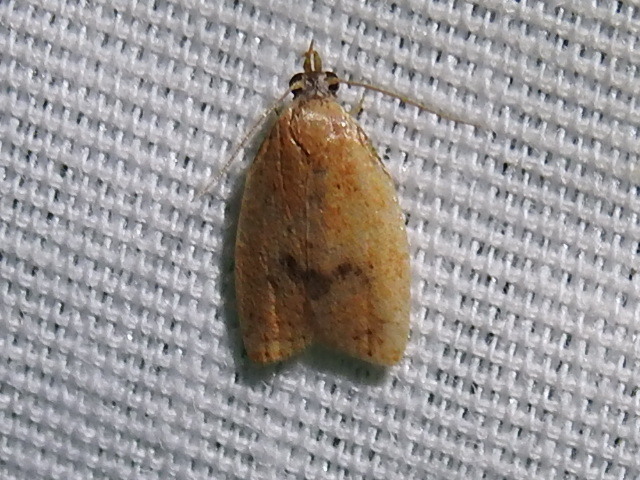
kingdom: Animalia
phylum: Arthropoda
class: Insecta
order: Lepidoptera
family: Tortricidae
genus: Sparganothoides
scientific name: Sparganothoides lentiginosana
